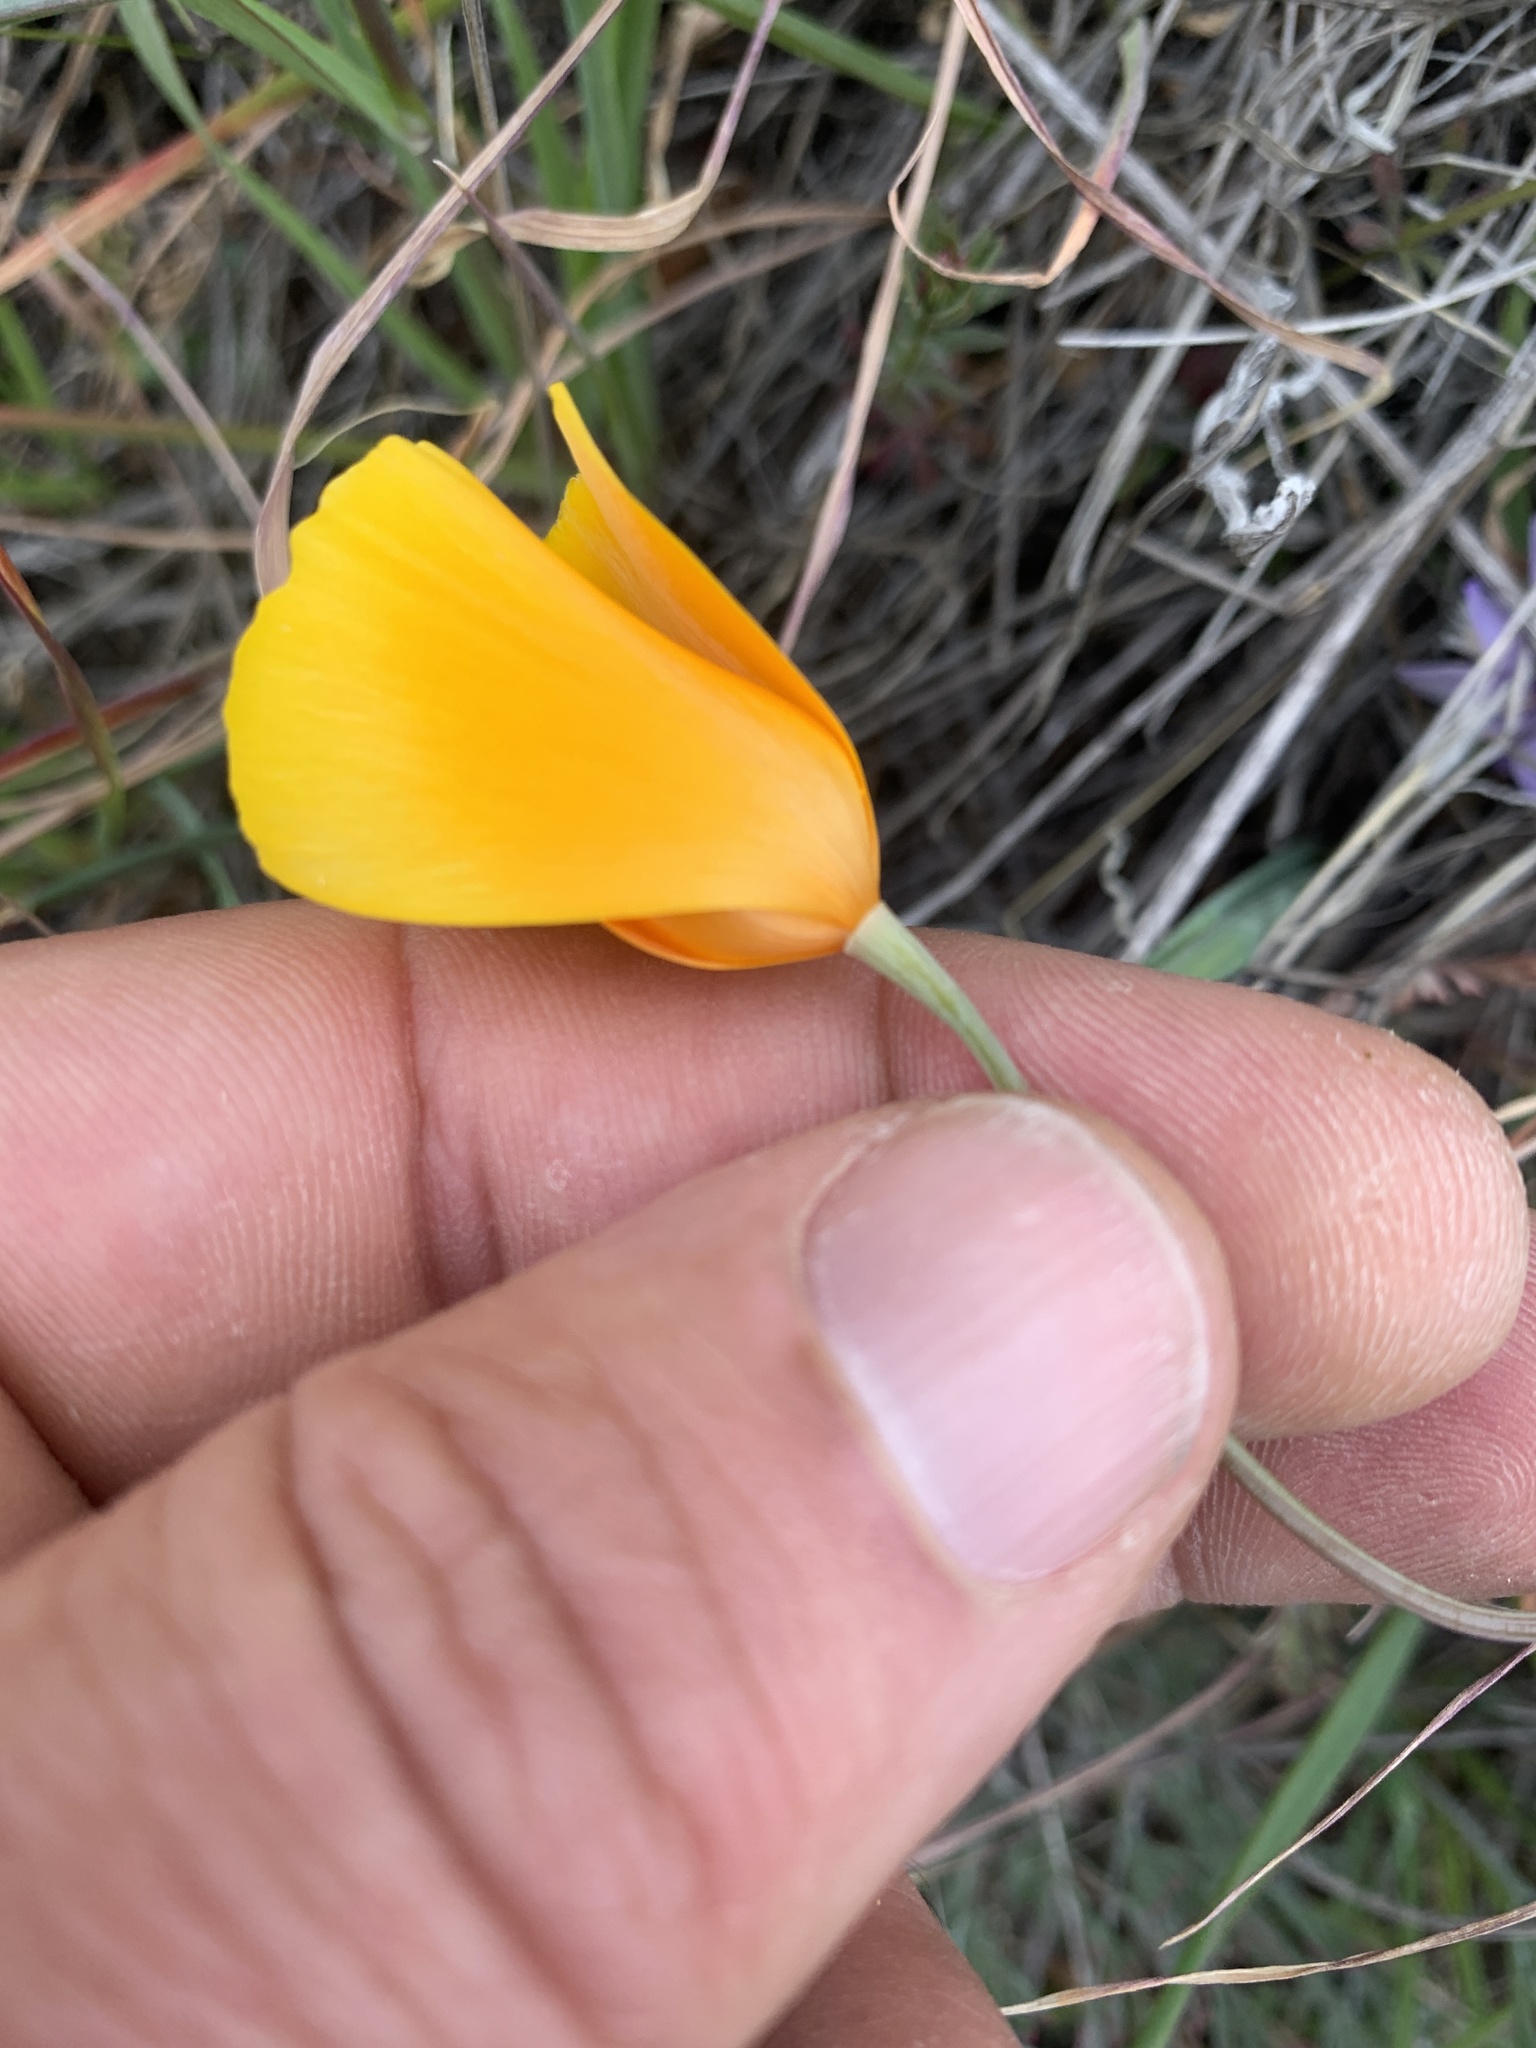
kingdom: Plantae
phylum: Tracheophyta
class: Magnoliopsida
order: Ranunculales
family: Papaveraceae
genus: Eschscholzia
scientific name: Eschscholzia caespitosa
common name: Tufted california-poppy
